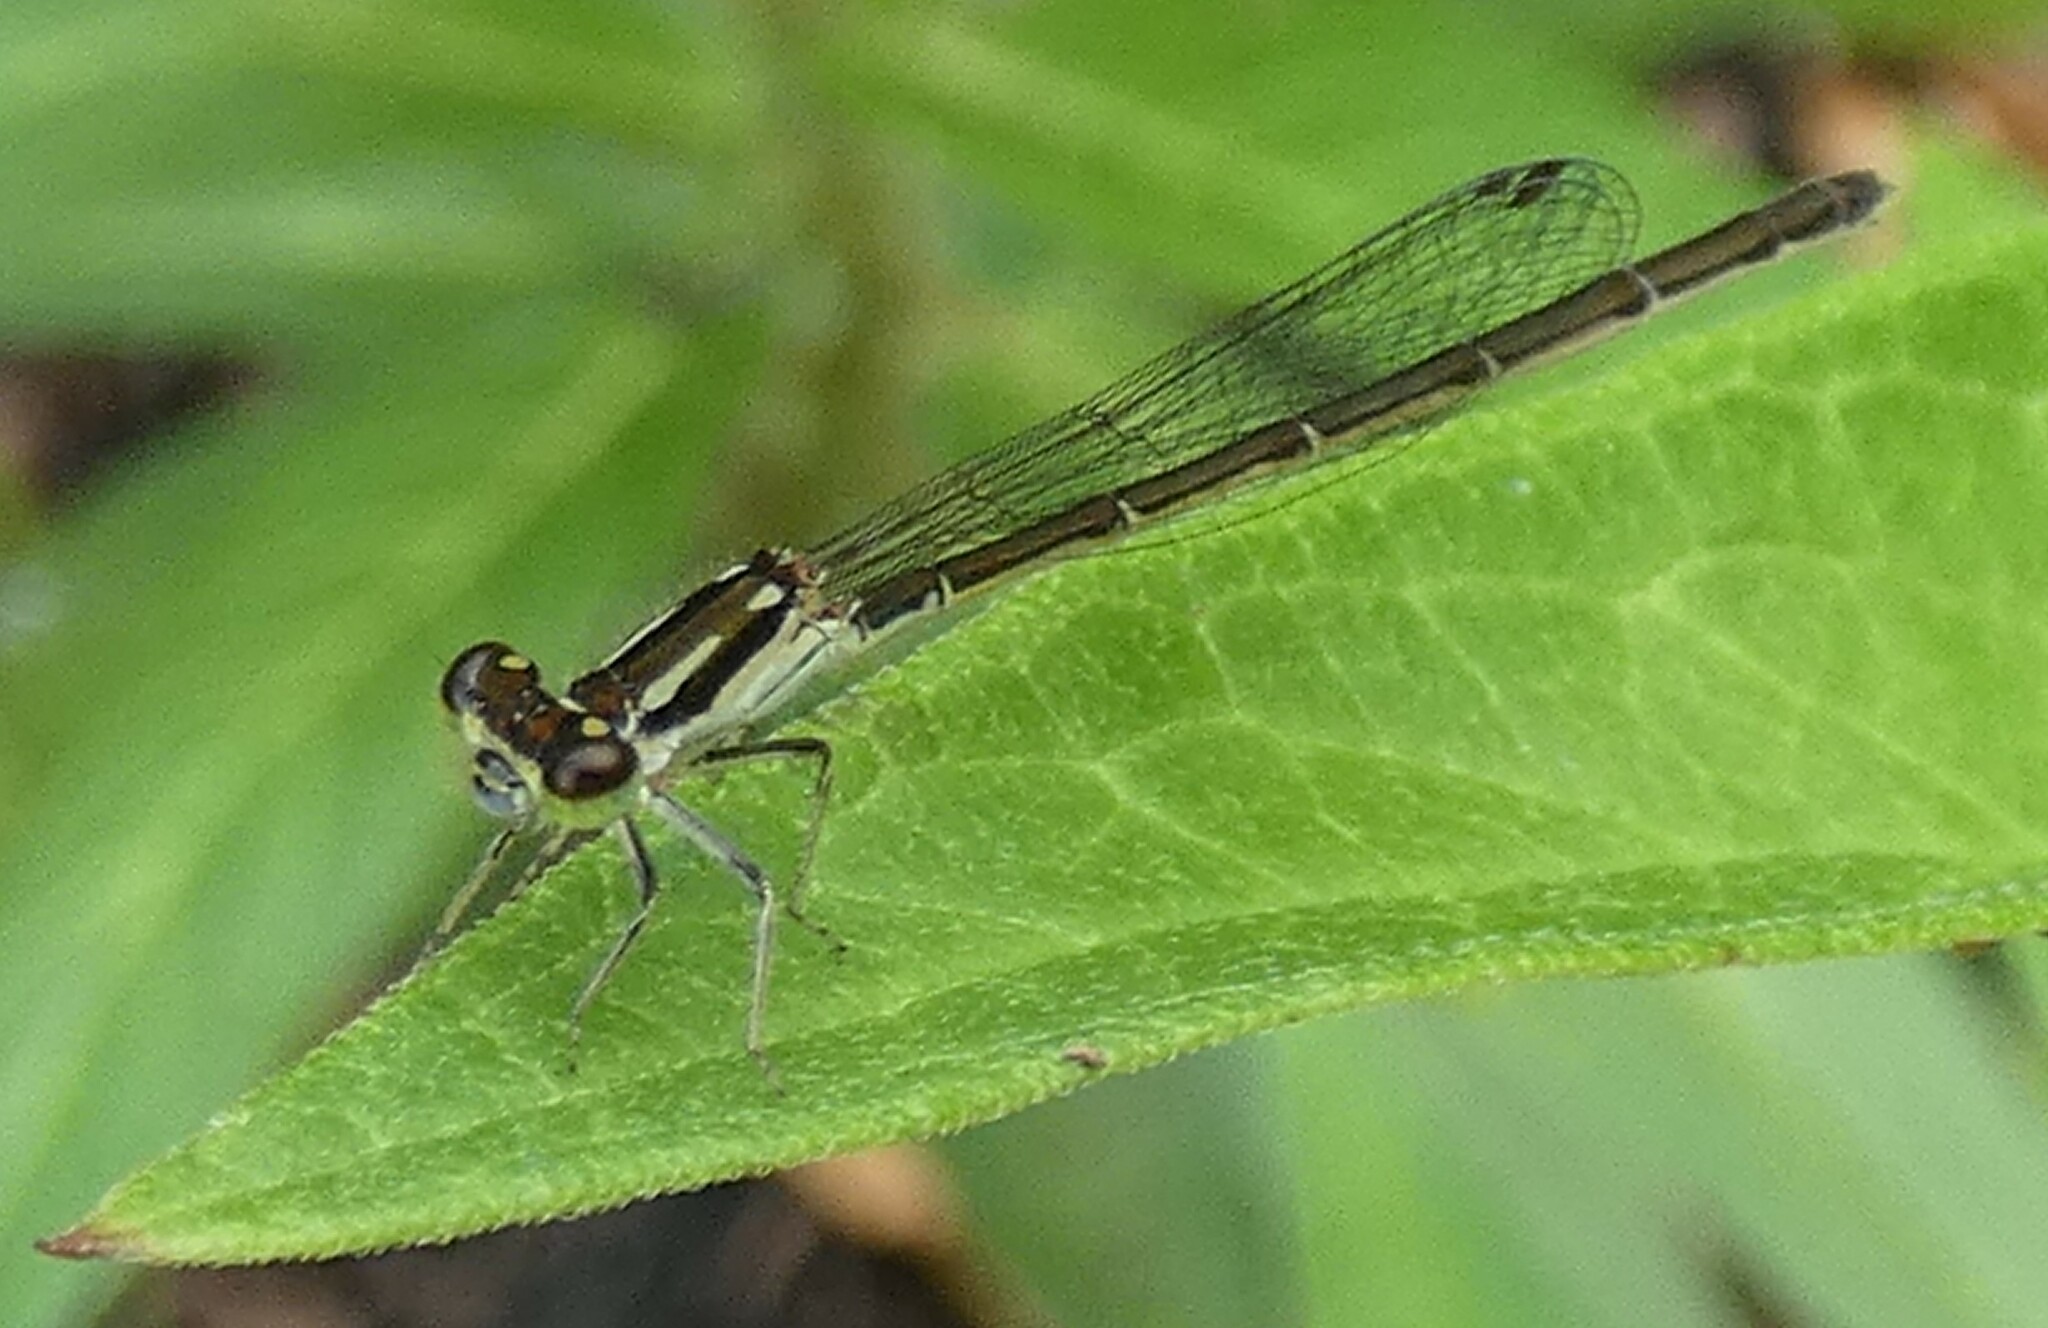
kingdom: Animalia
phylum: Arthropoda
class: Insecta
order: Odonata
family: Coenagrionidae
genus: Ischnura
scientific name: Ischnura posita
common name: Fragile forktail
